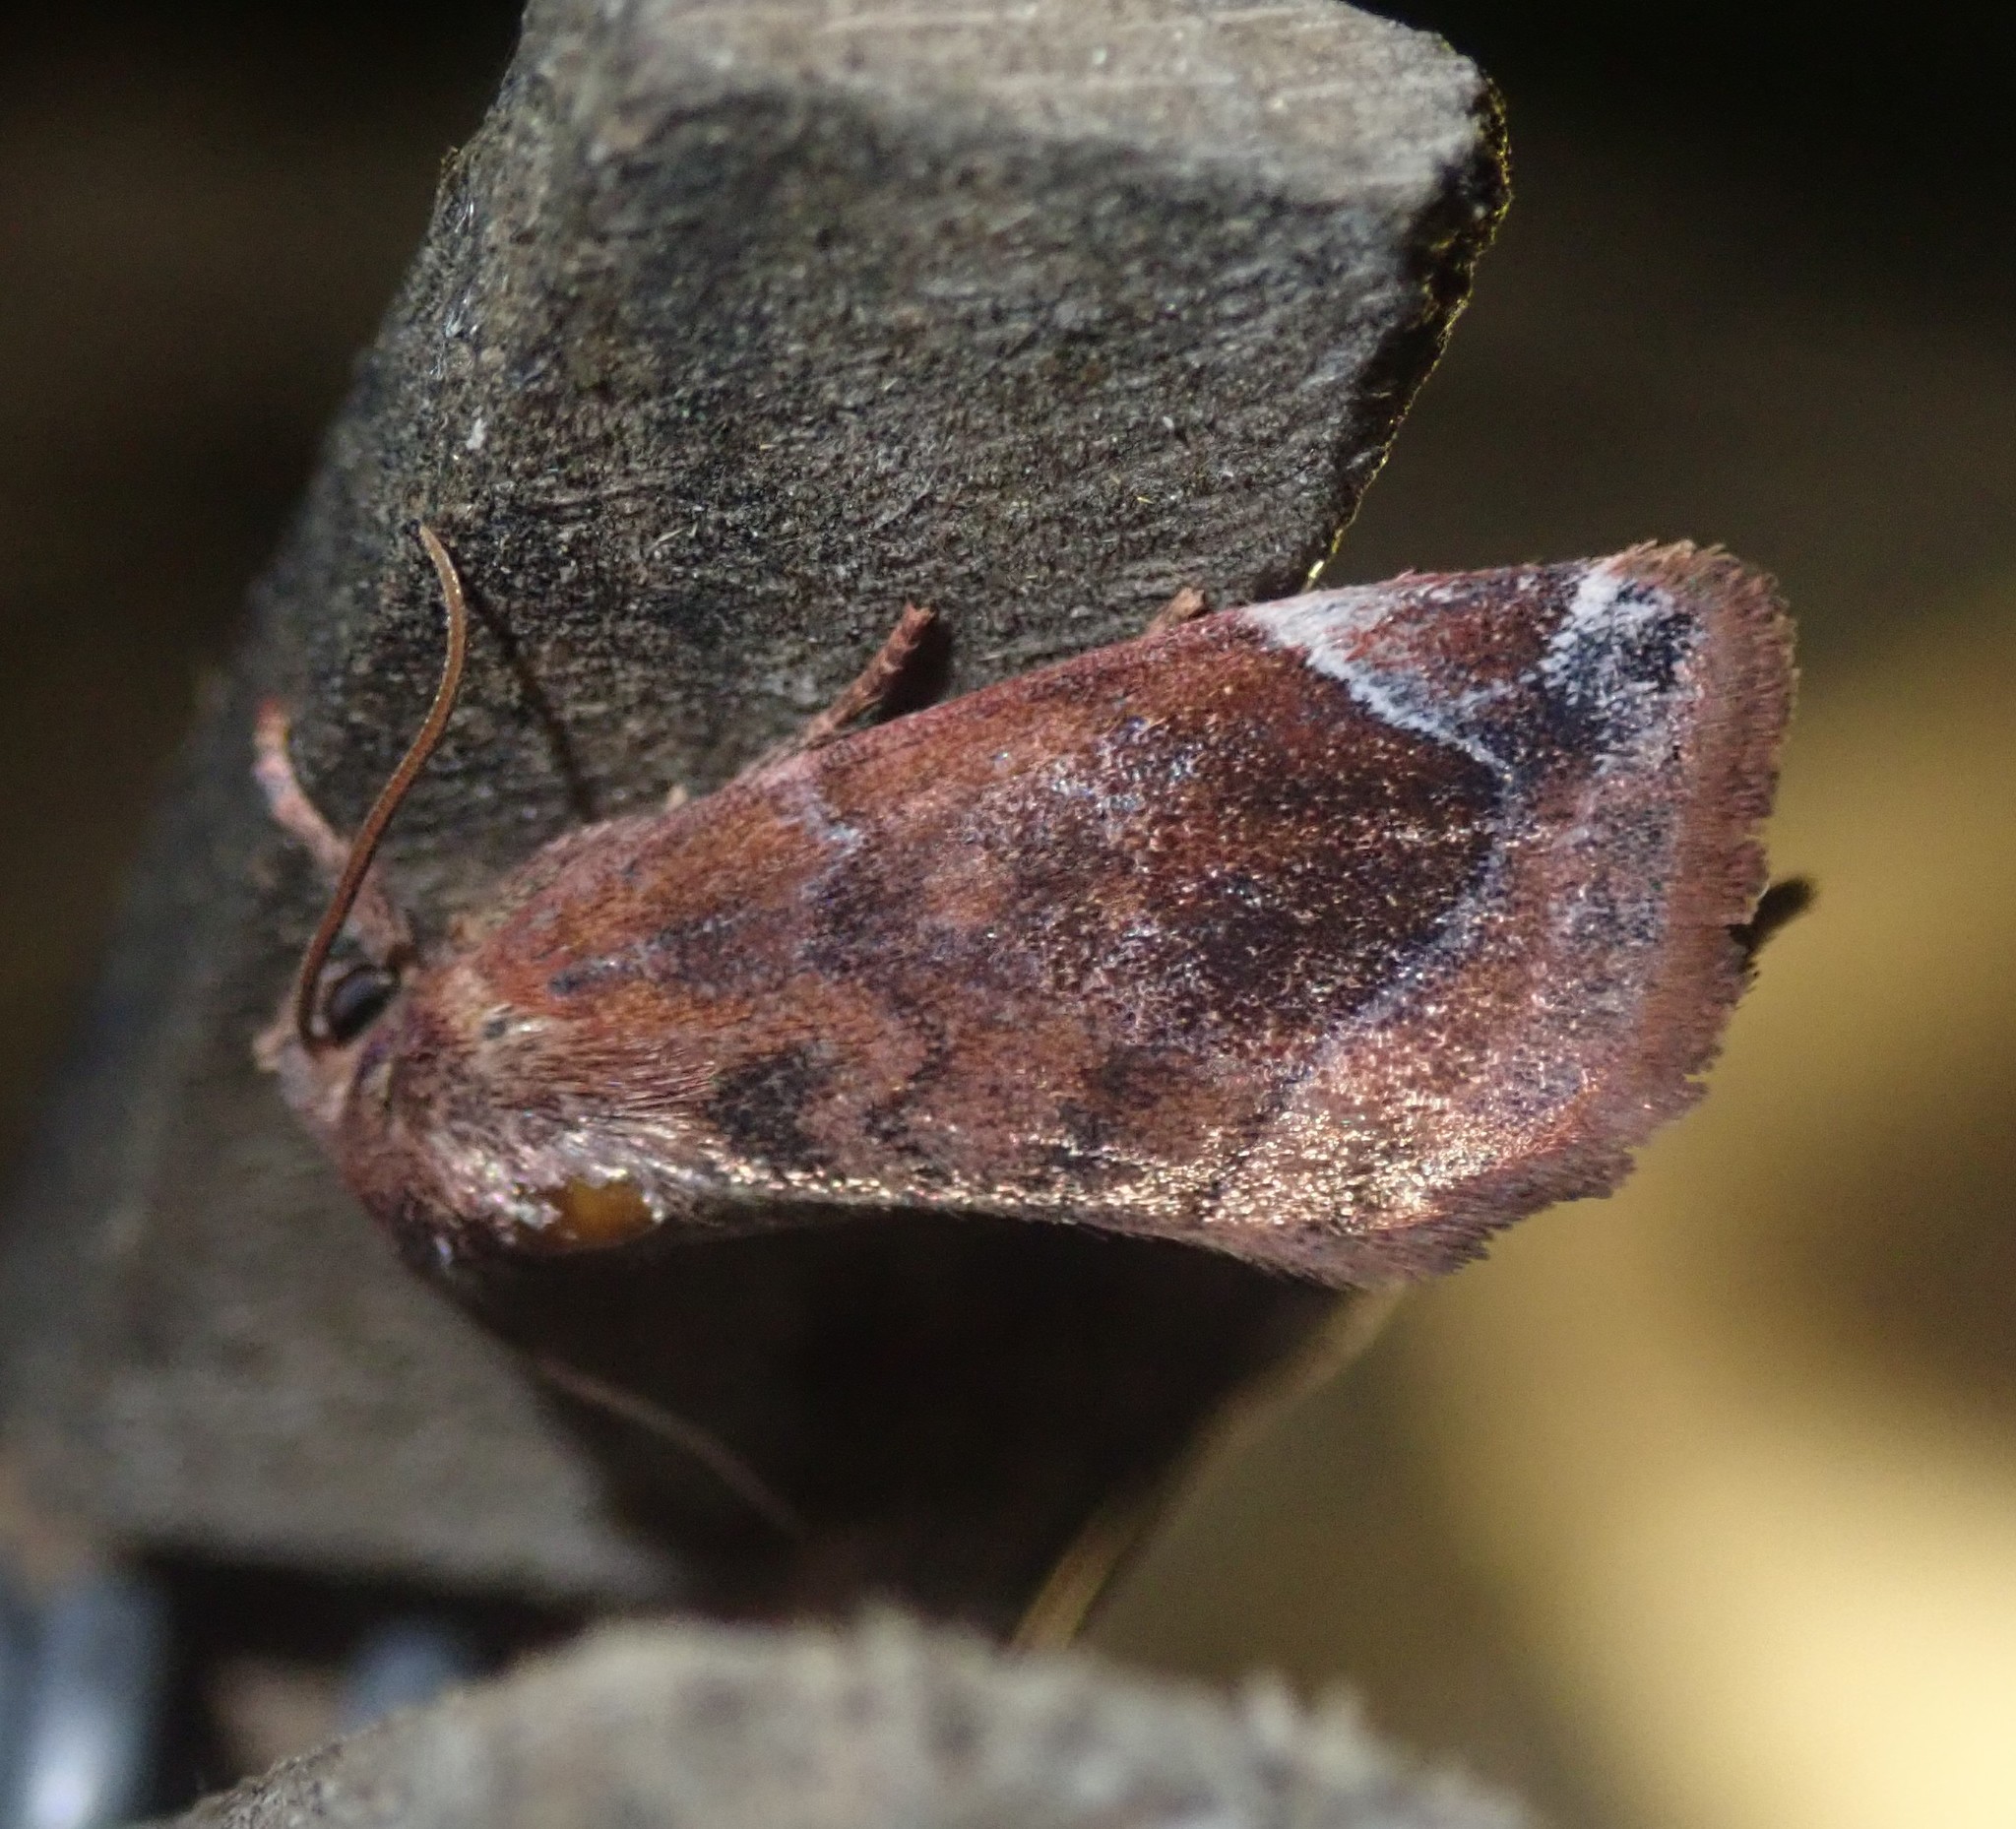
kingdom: Animalia
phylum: Arthropoda
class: Insecta
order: Lepidoptera
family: Noctuidae
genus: Cosmia
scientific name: Cosmia pyralina
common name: Lunar-spotted pinion
